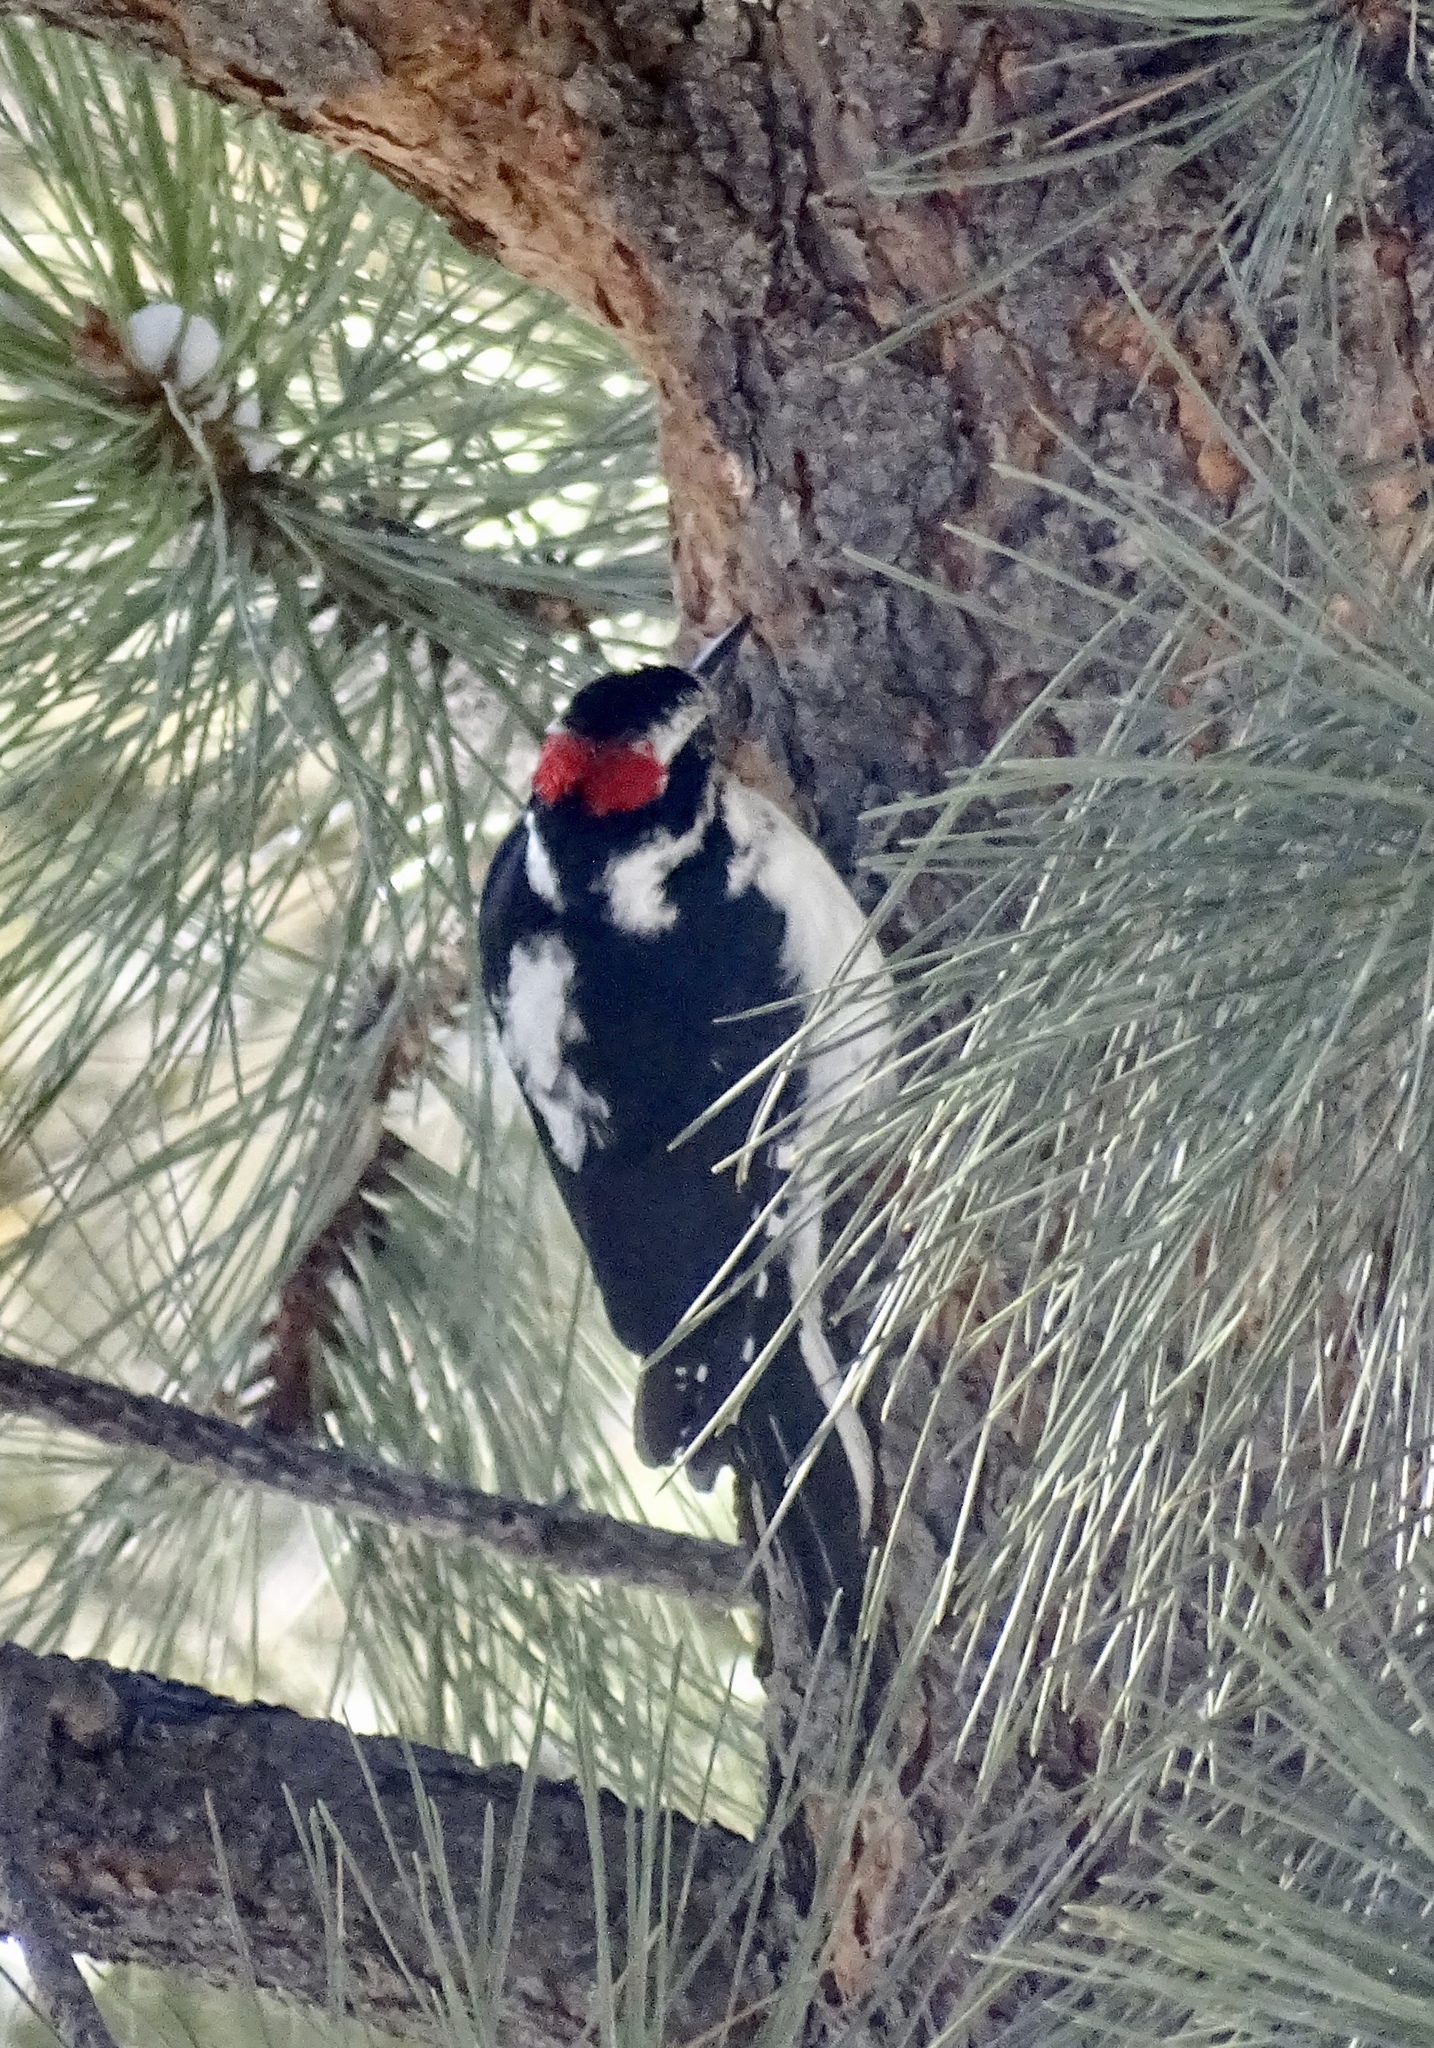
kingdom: Animalia
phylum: Chordata
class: Aves
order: Piciformes
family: Picidae
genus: Leuconotopicus
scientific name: Leuconotopicus villosus
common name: Hairy woodpecker
